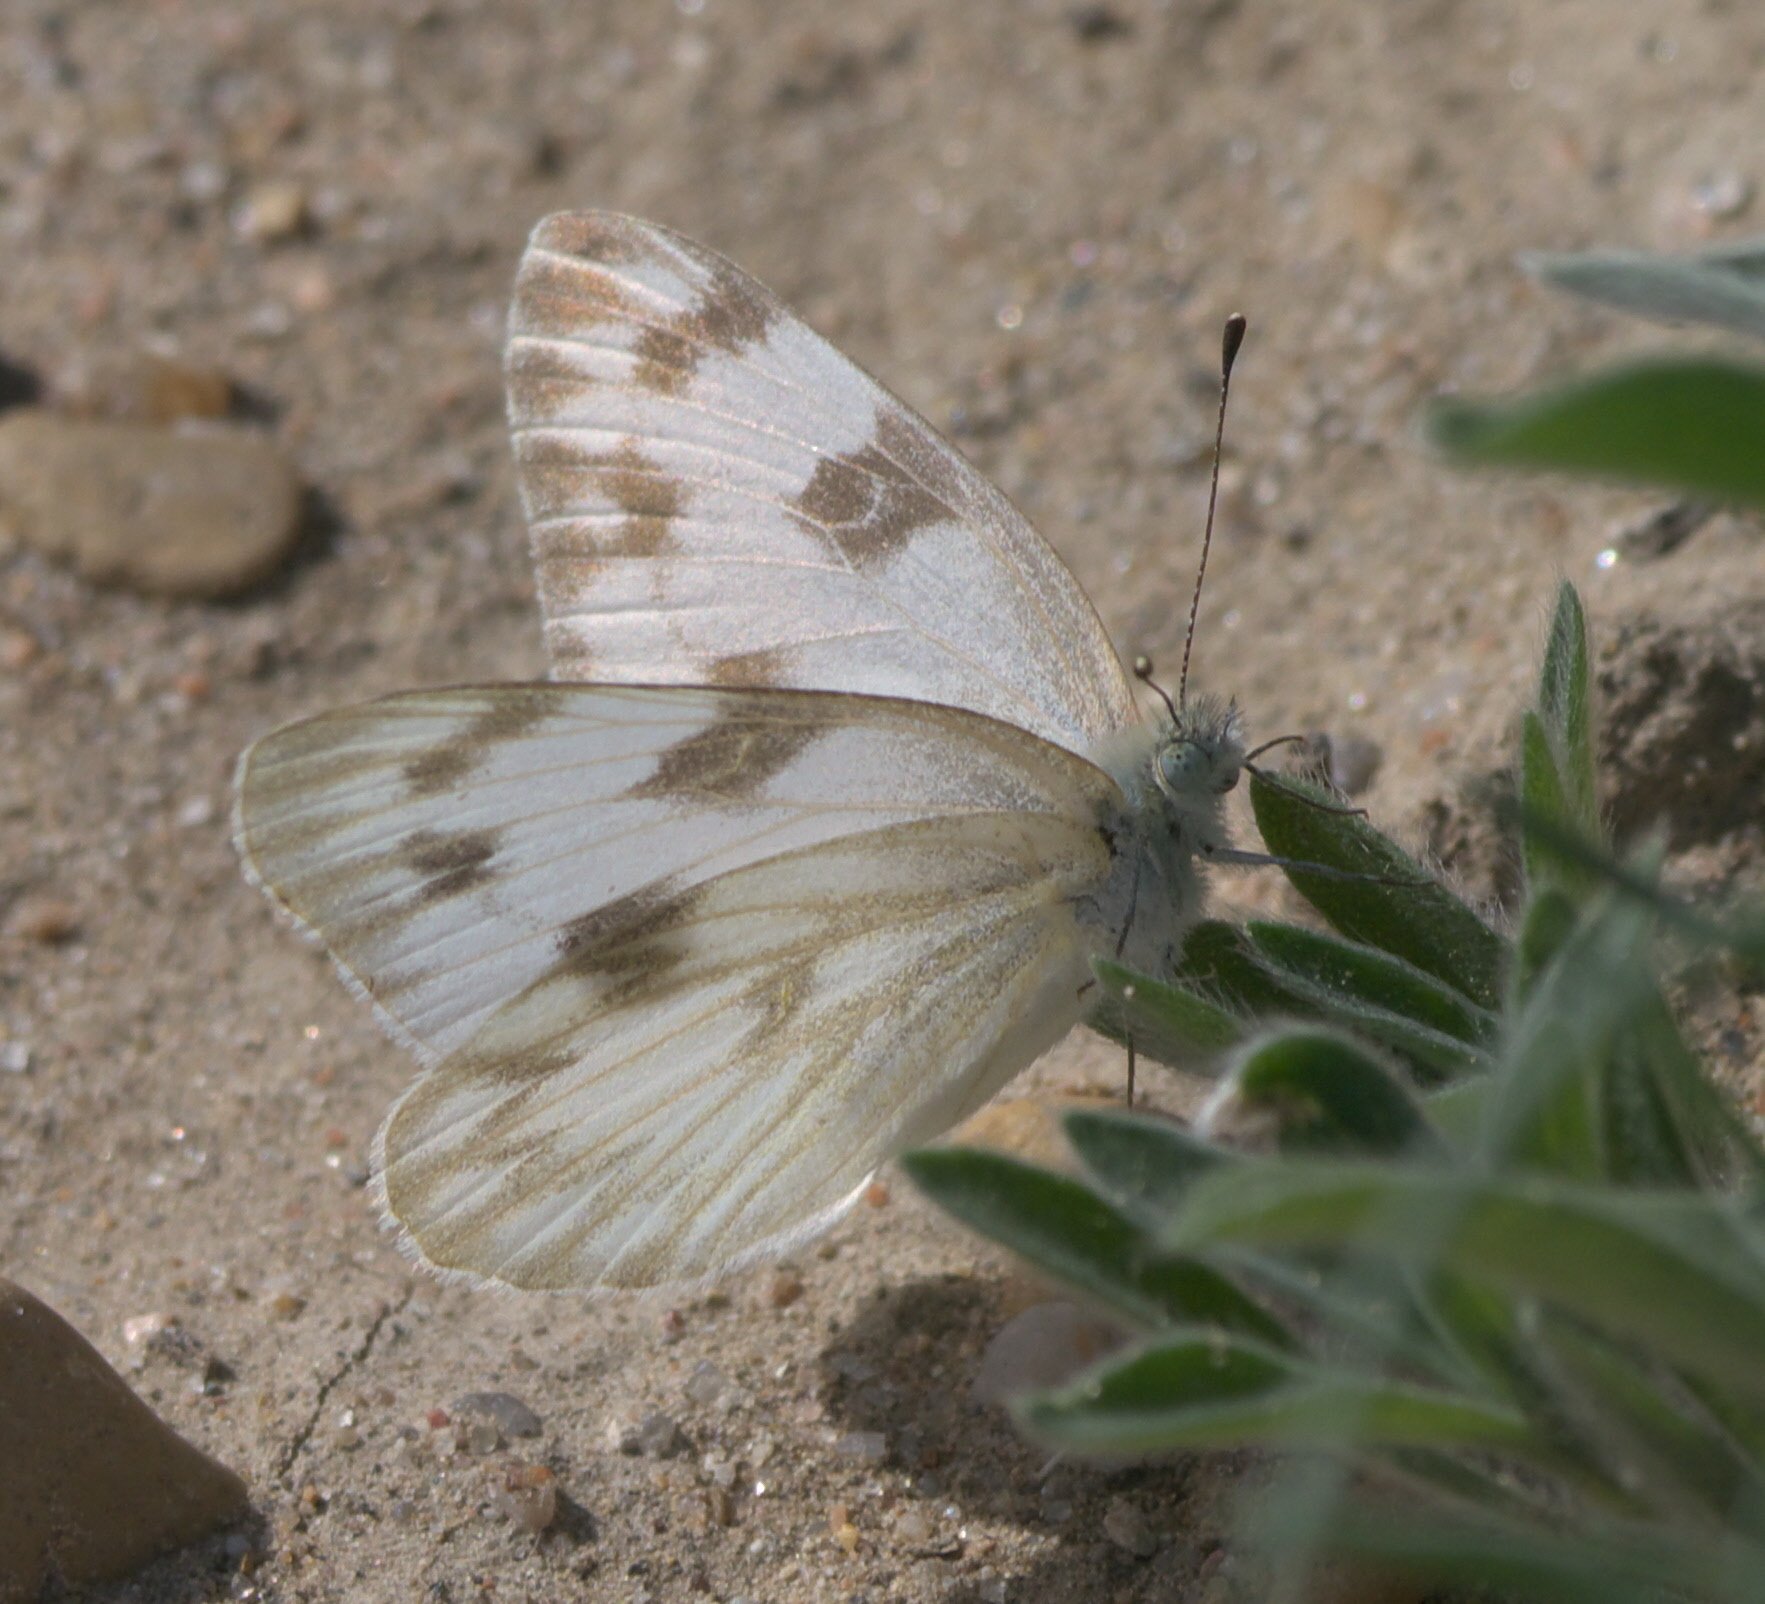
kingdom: Animalia
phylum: Arthropoda
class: Insecta
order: Lepidoptera
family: Pieridae
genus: Pontia
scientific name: Pontia protodice
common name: Checkered white
